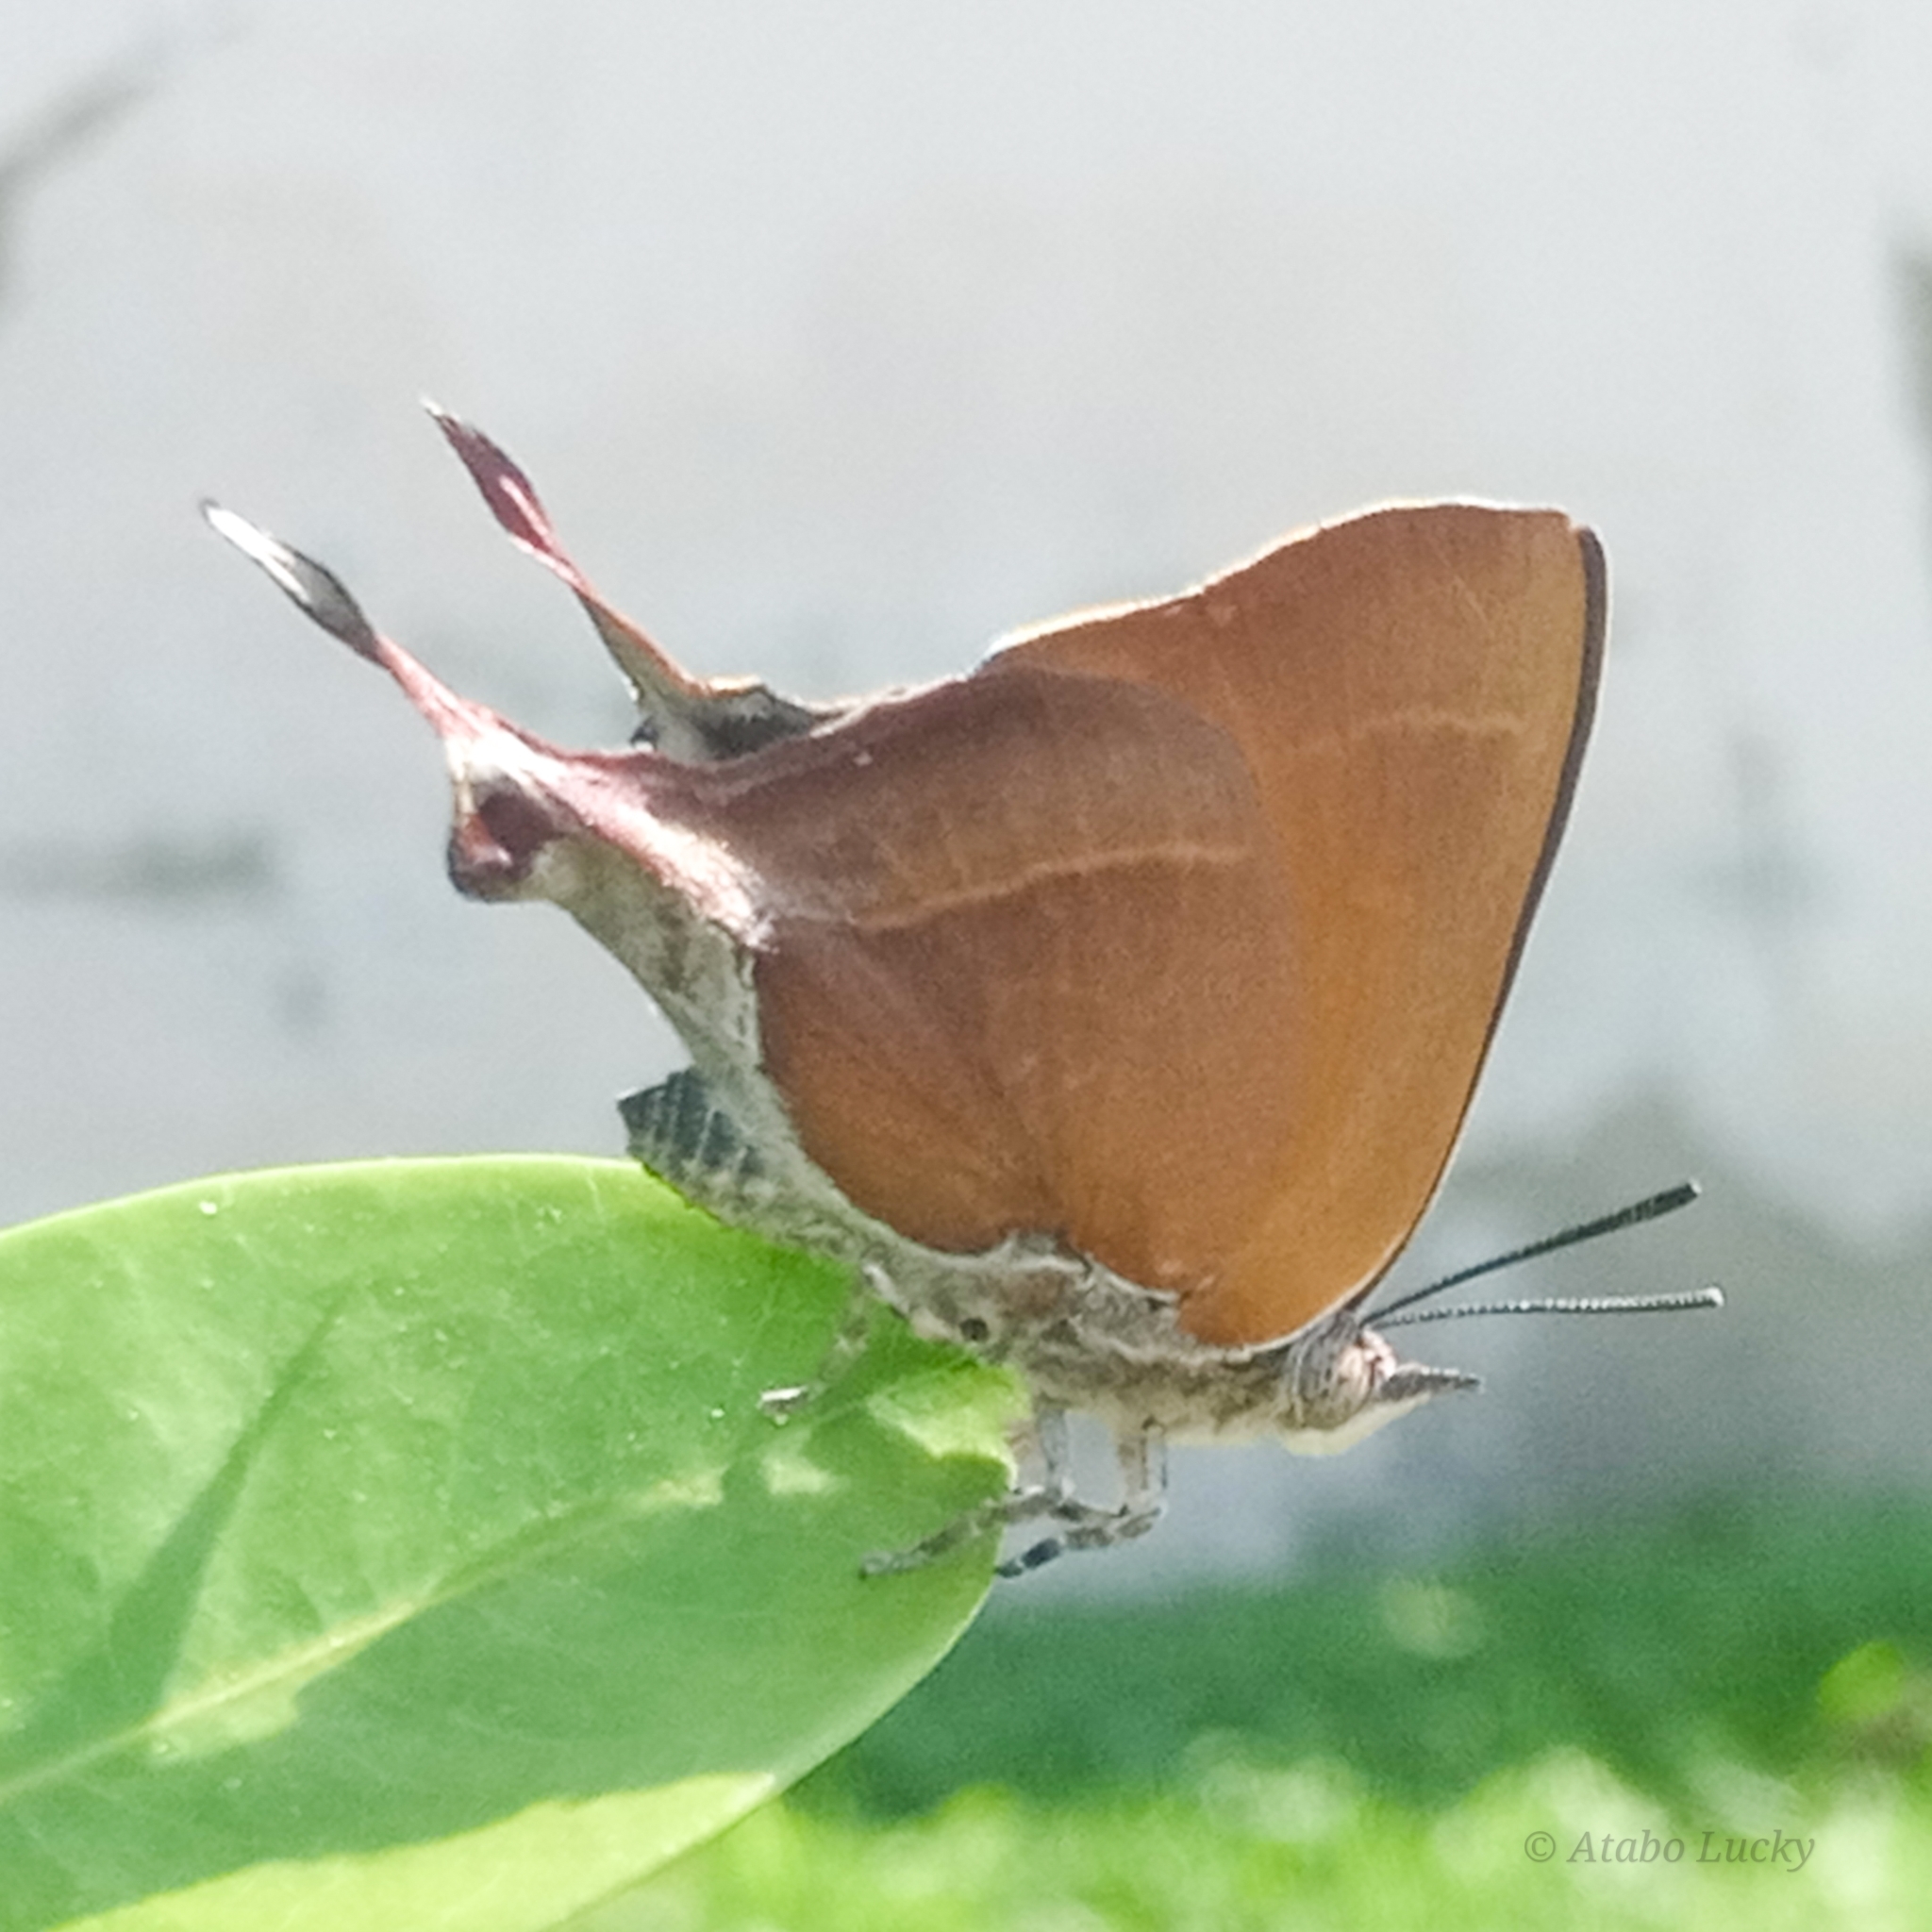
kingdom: Animalia
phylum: Arthropoda
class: Insecta
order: Lepidoptera
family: Lycaenidae
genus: Myrina
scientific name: Myrina silenus
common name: Amber fig-tree blue
